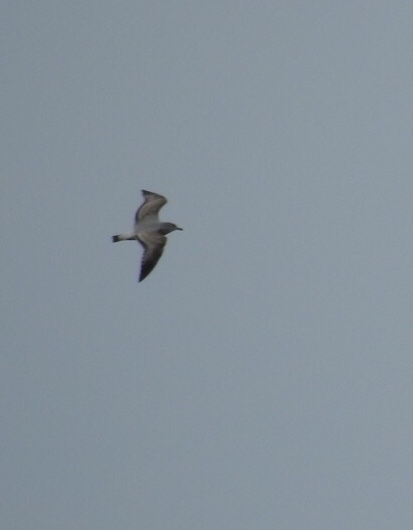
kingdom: Animalia
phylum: Chordata
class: Aves
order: Charadriiformes
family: Laridae
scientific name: Laridae
